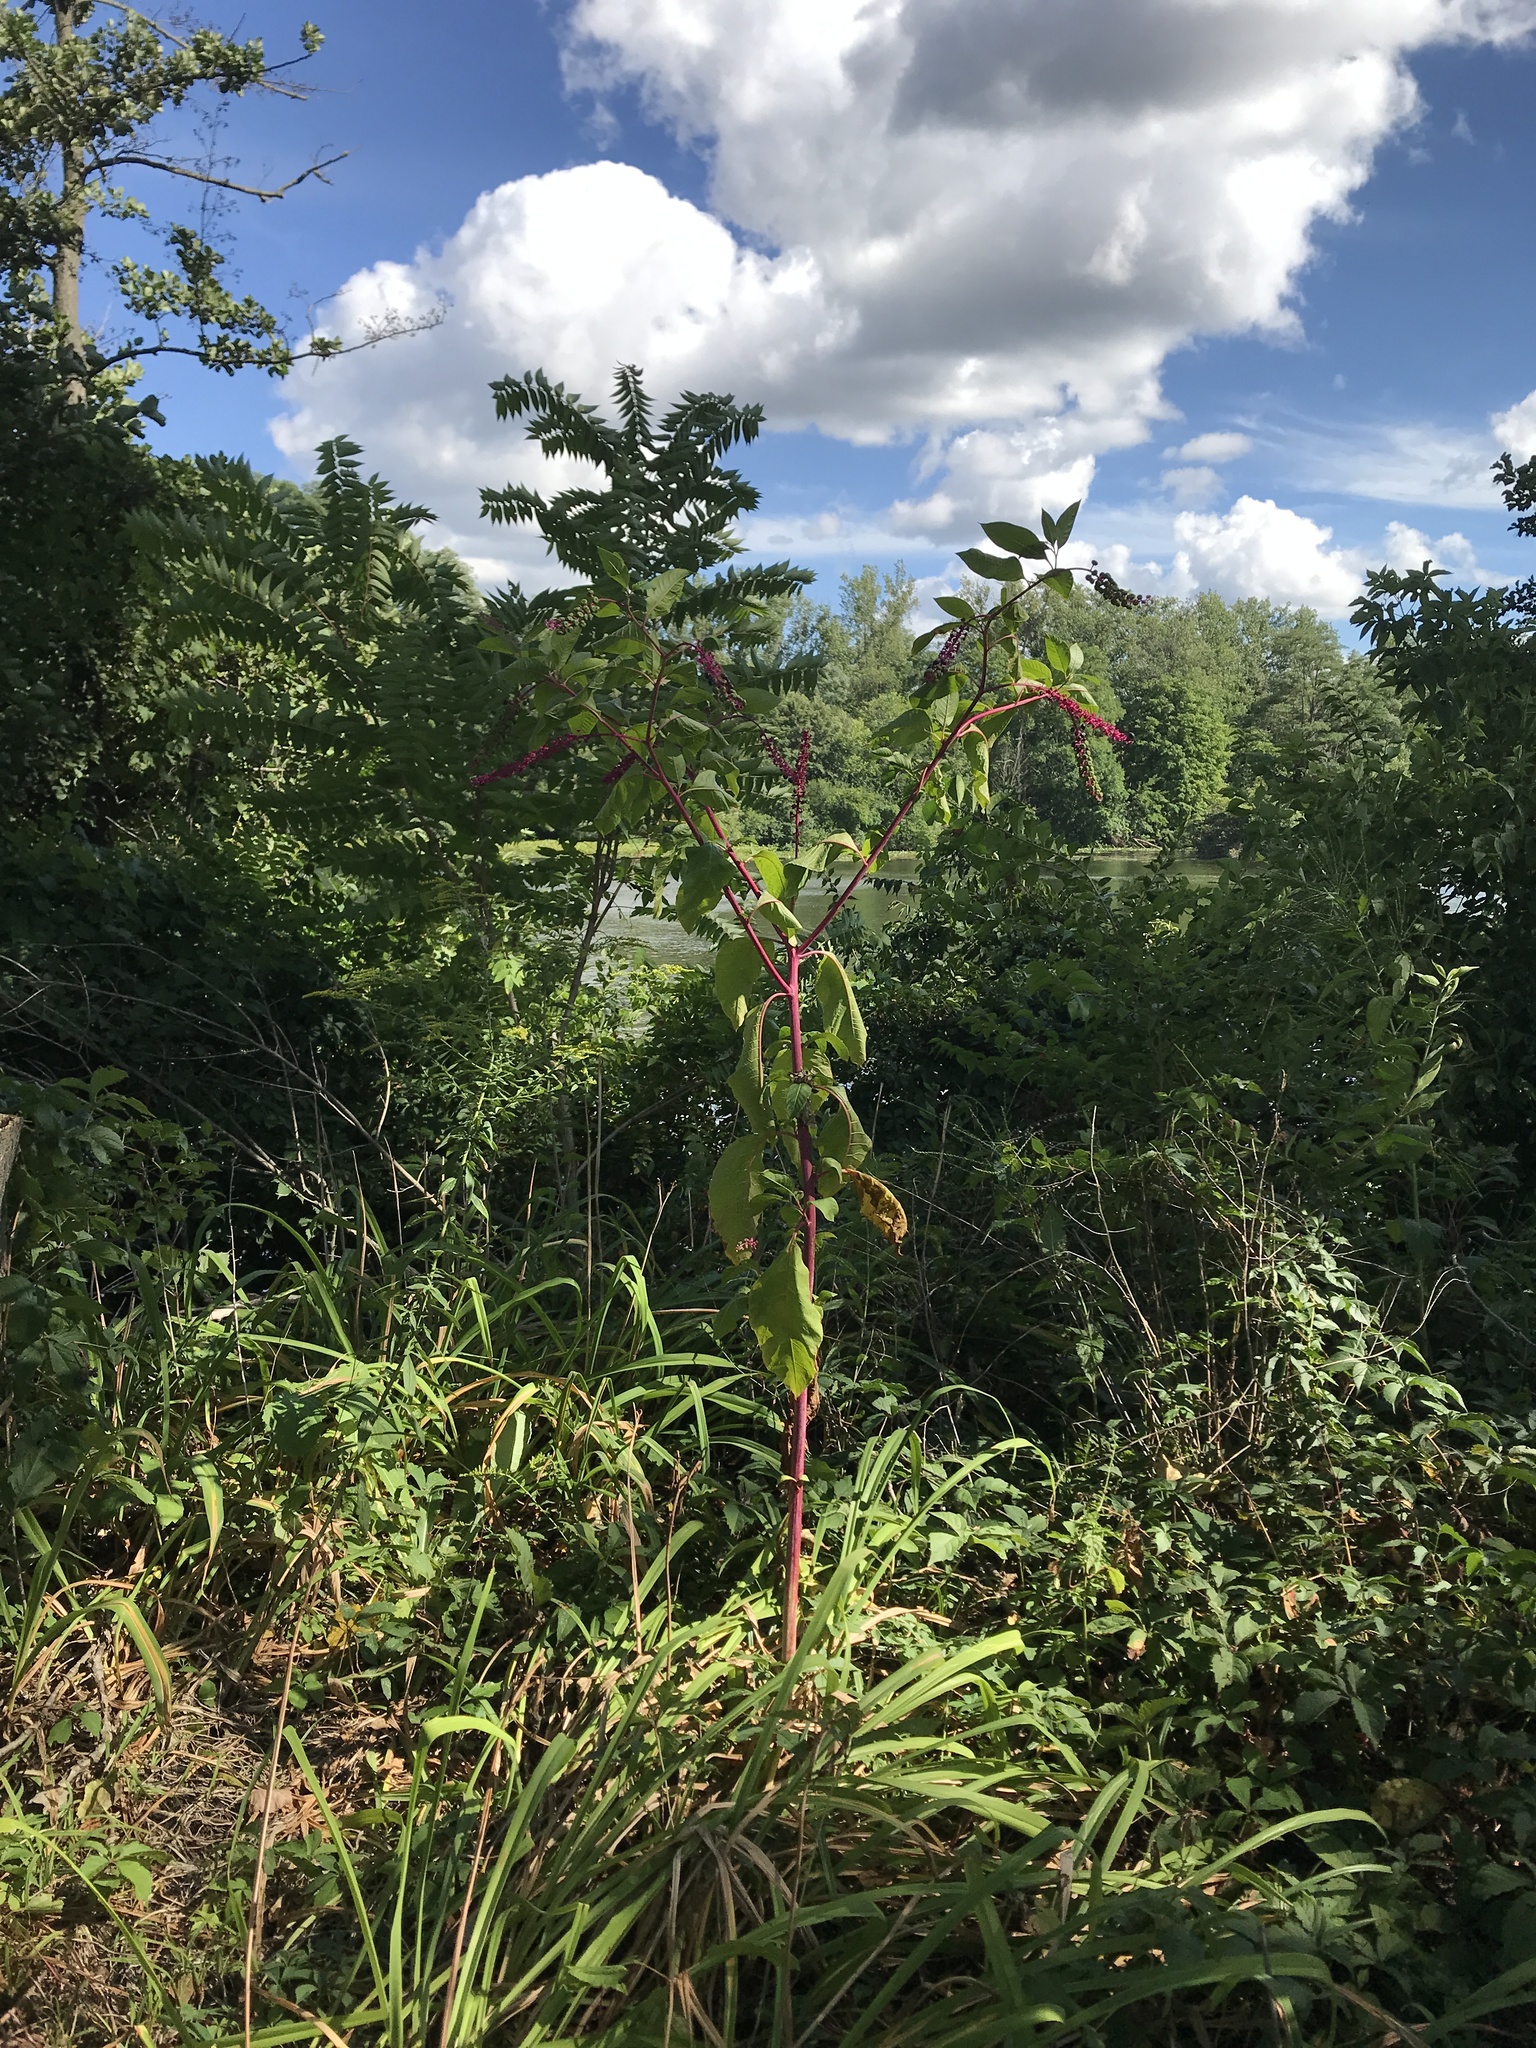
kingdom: Plantae
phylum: Tracheophyta
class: Magnoliopsida
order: Caryophyllales
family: Phytolaccaceae
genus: Phytolacca
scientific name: Phytolacca americana
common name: American pokeweed
